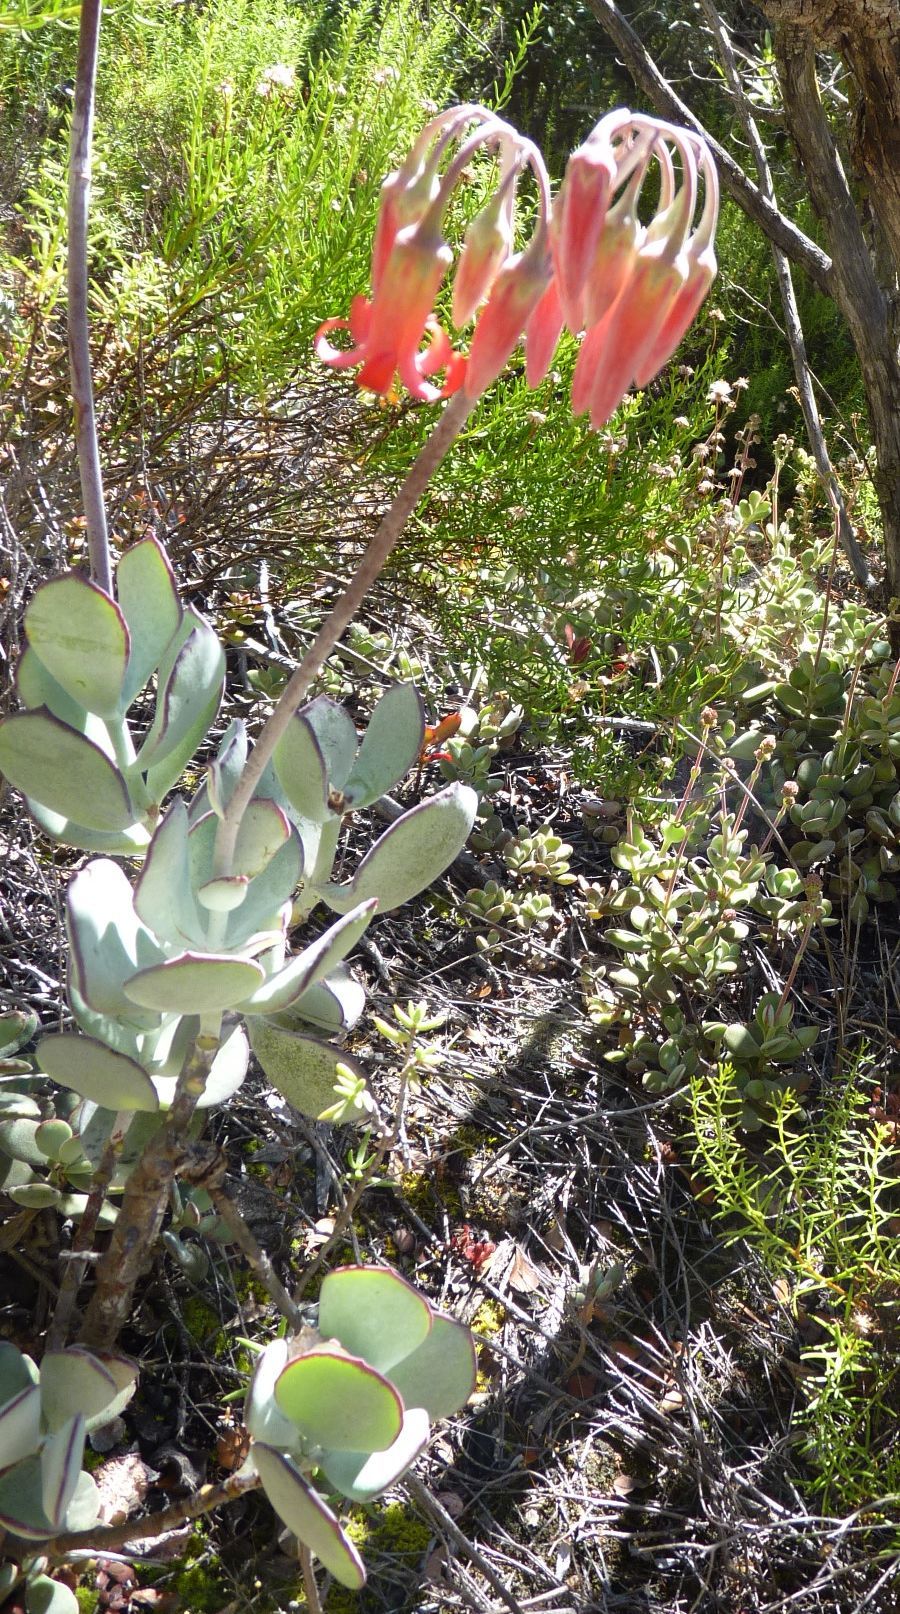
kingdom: Plantae
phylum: Tracheophyta
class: Magnoliopsida
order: Saxifragales
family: Crassulaceae
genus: Cotyledon
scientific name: Cotyledon orbiculata
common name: Pig's ear
